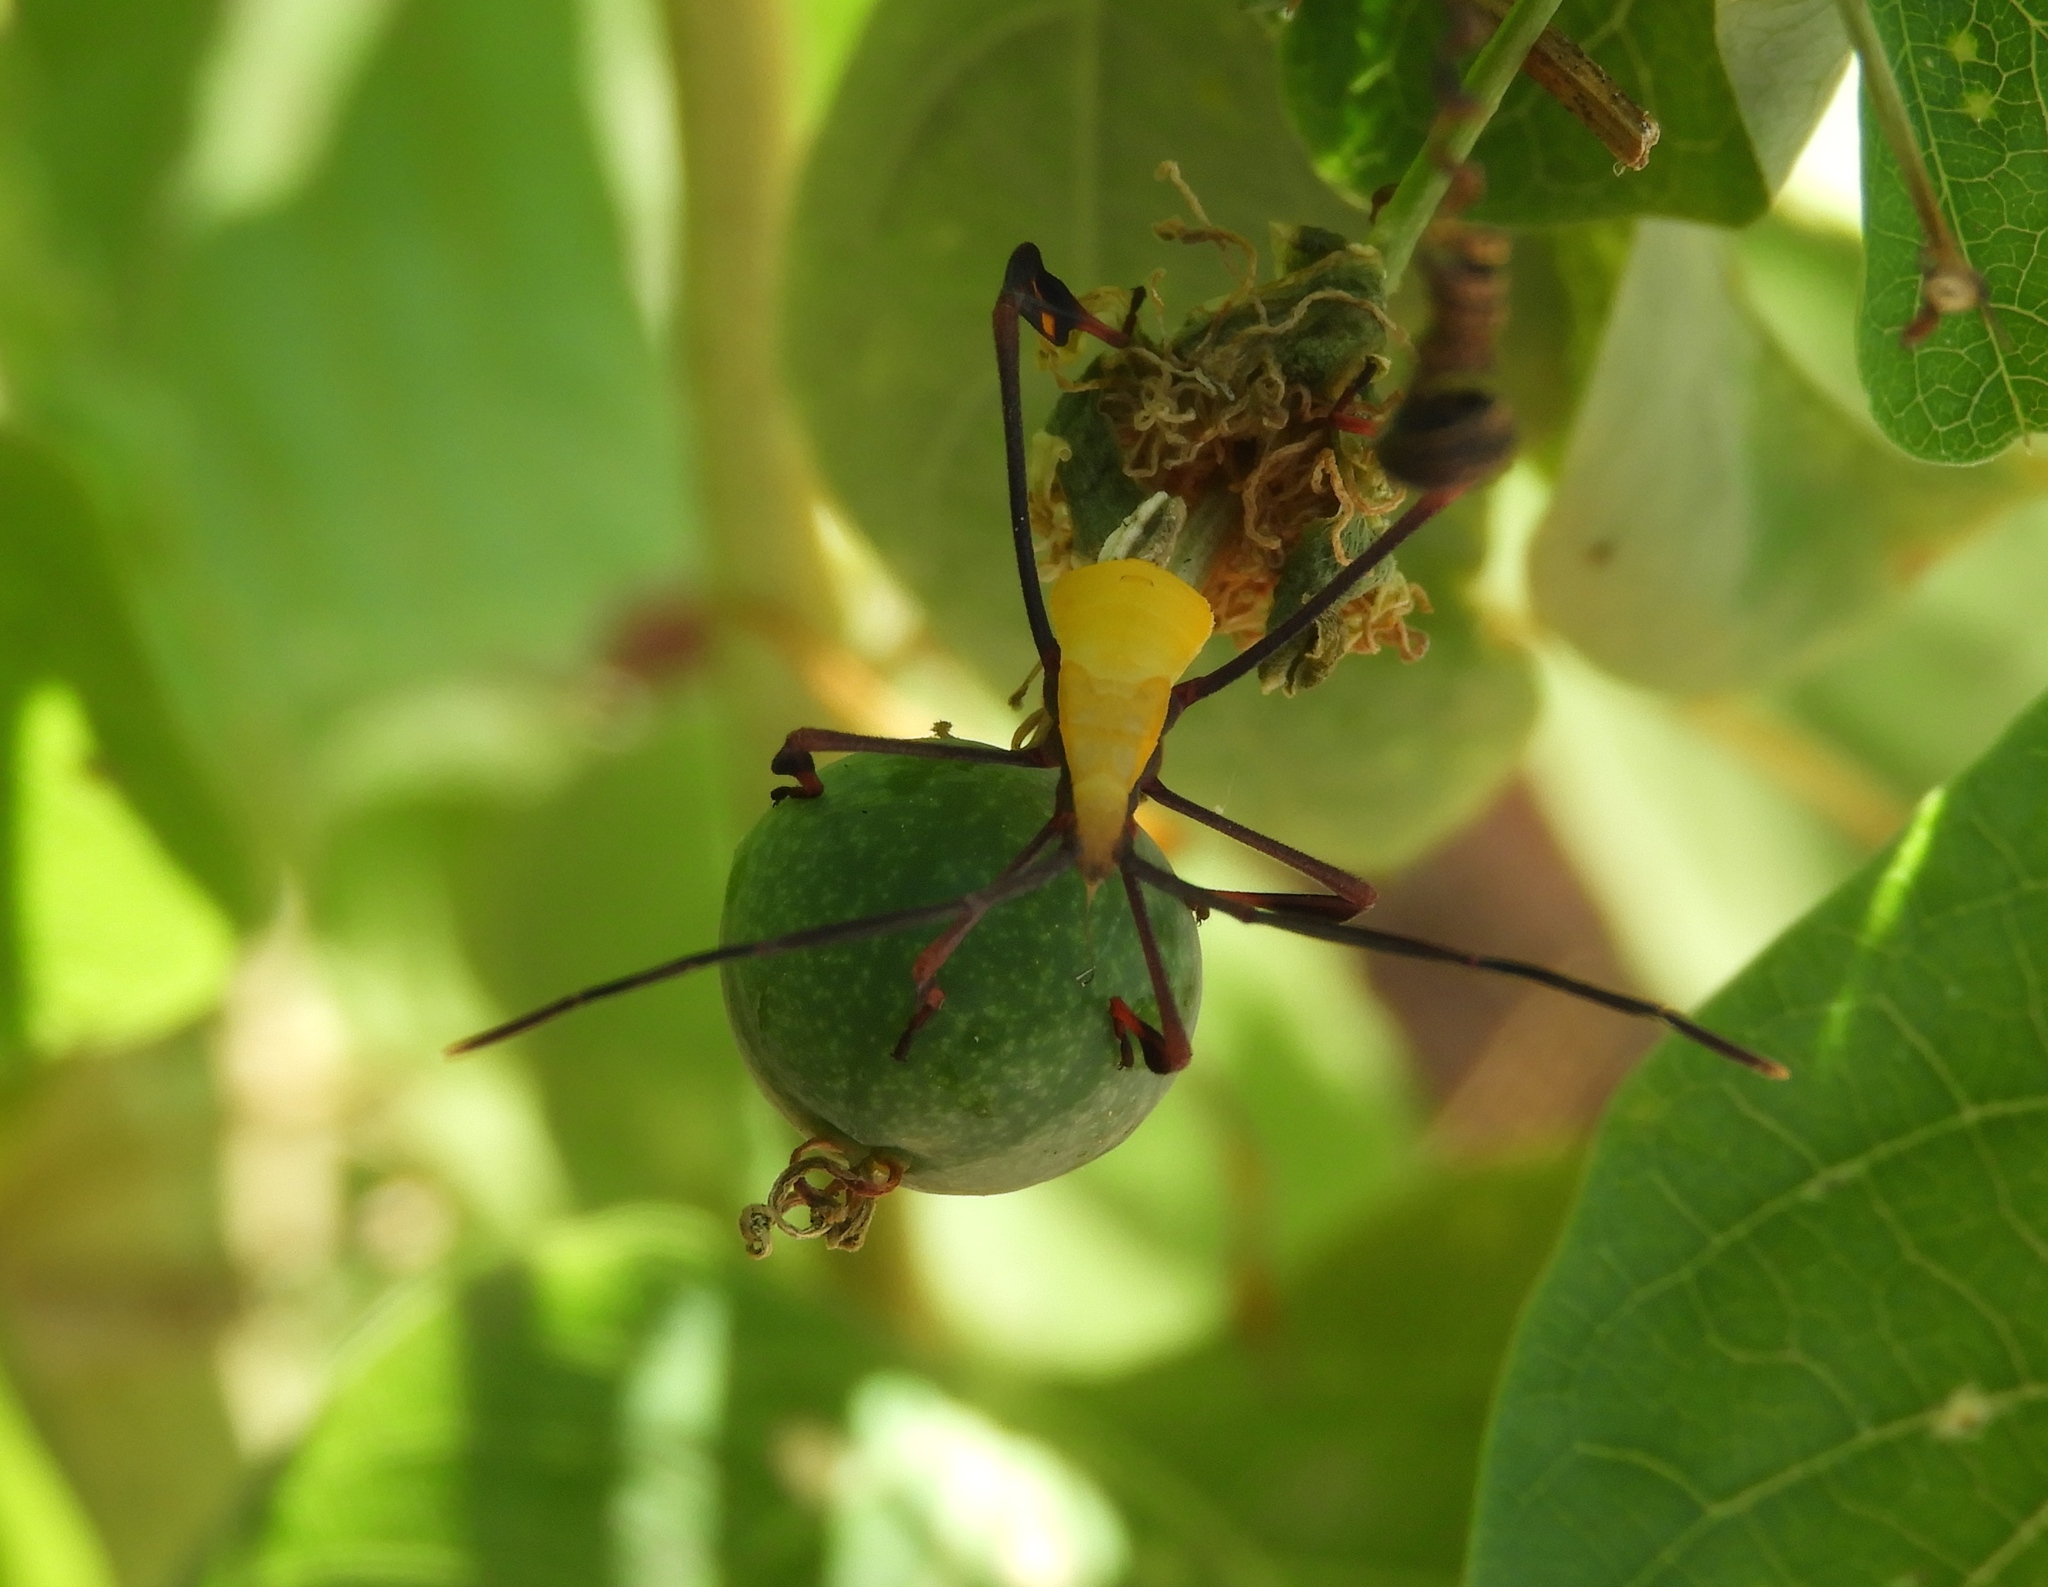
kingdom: Animalia
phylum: Arthropoda
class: Insecta
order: Hemiptera
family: Coreidae
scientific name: Coreidae
